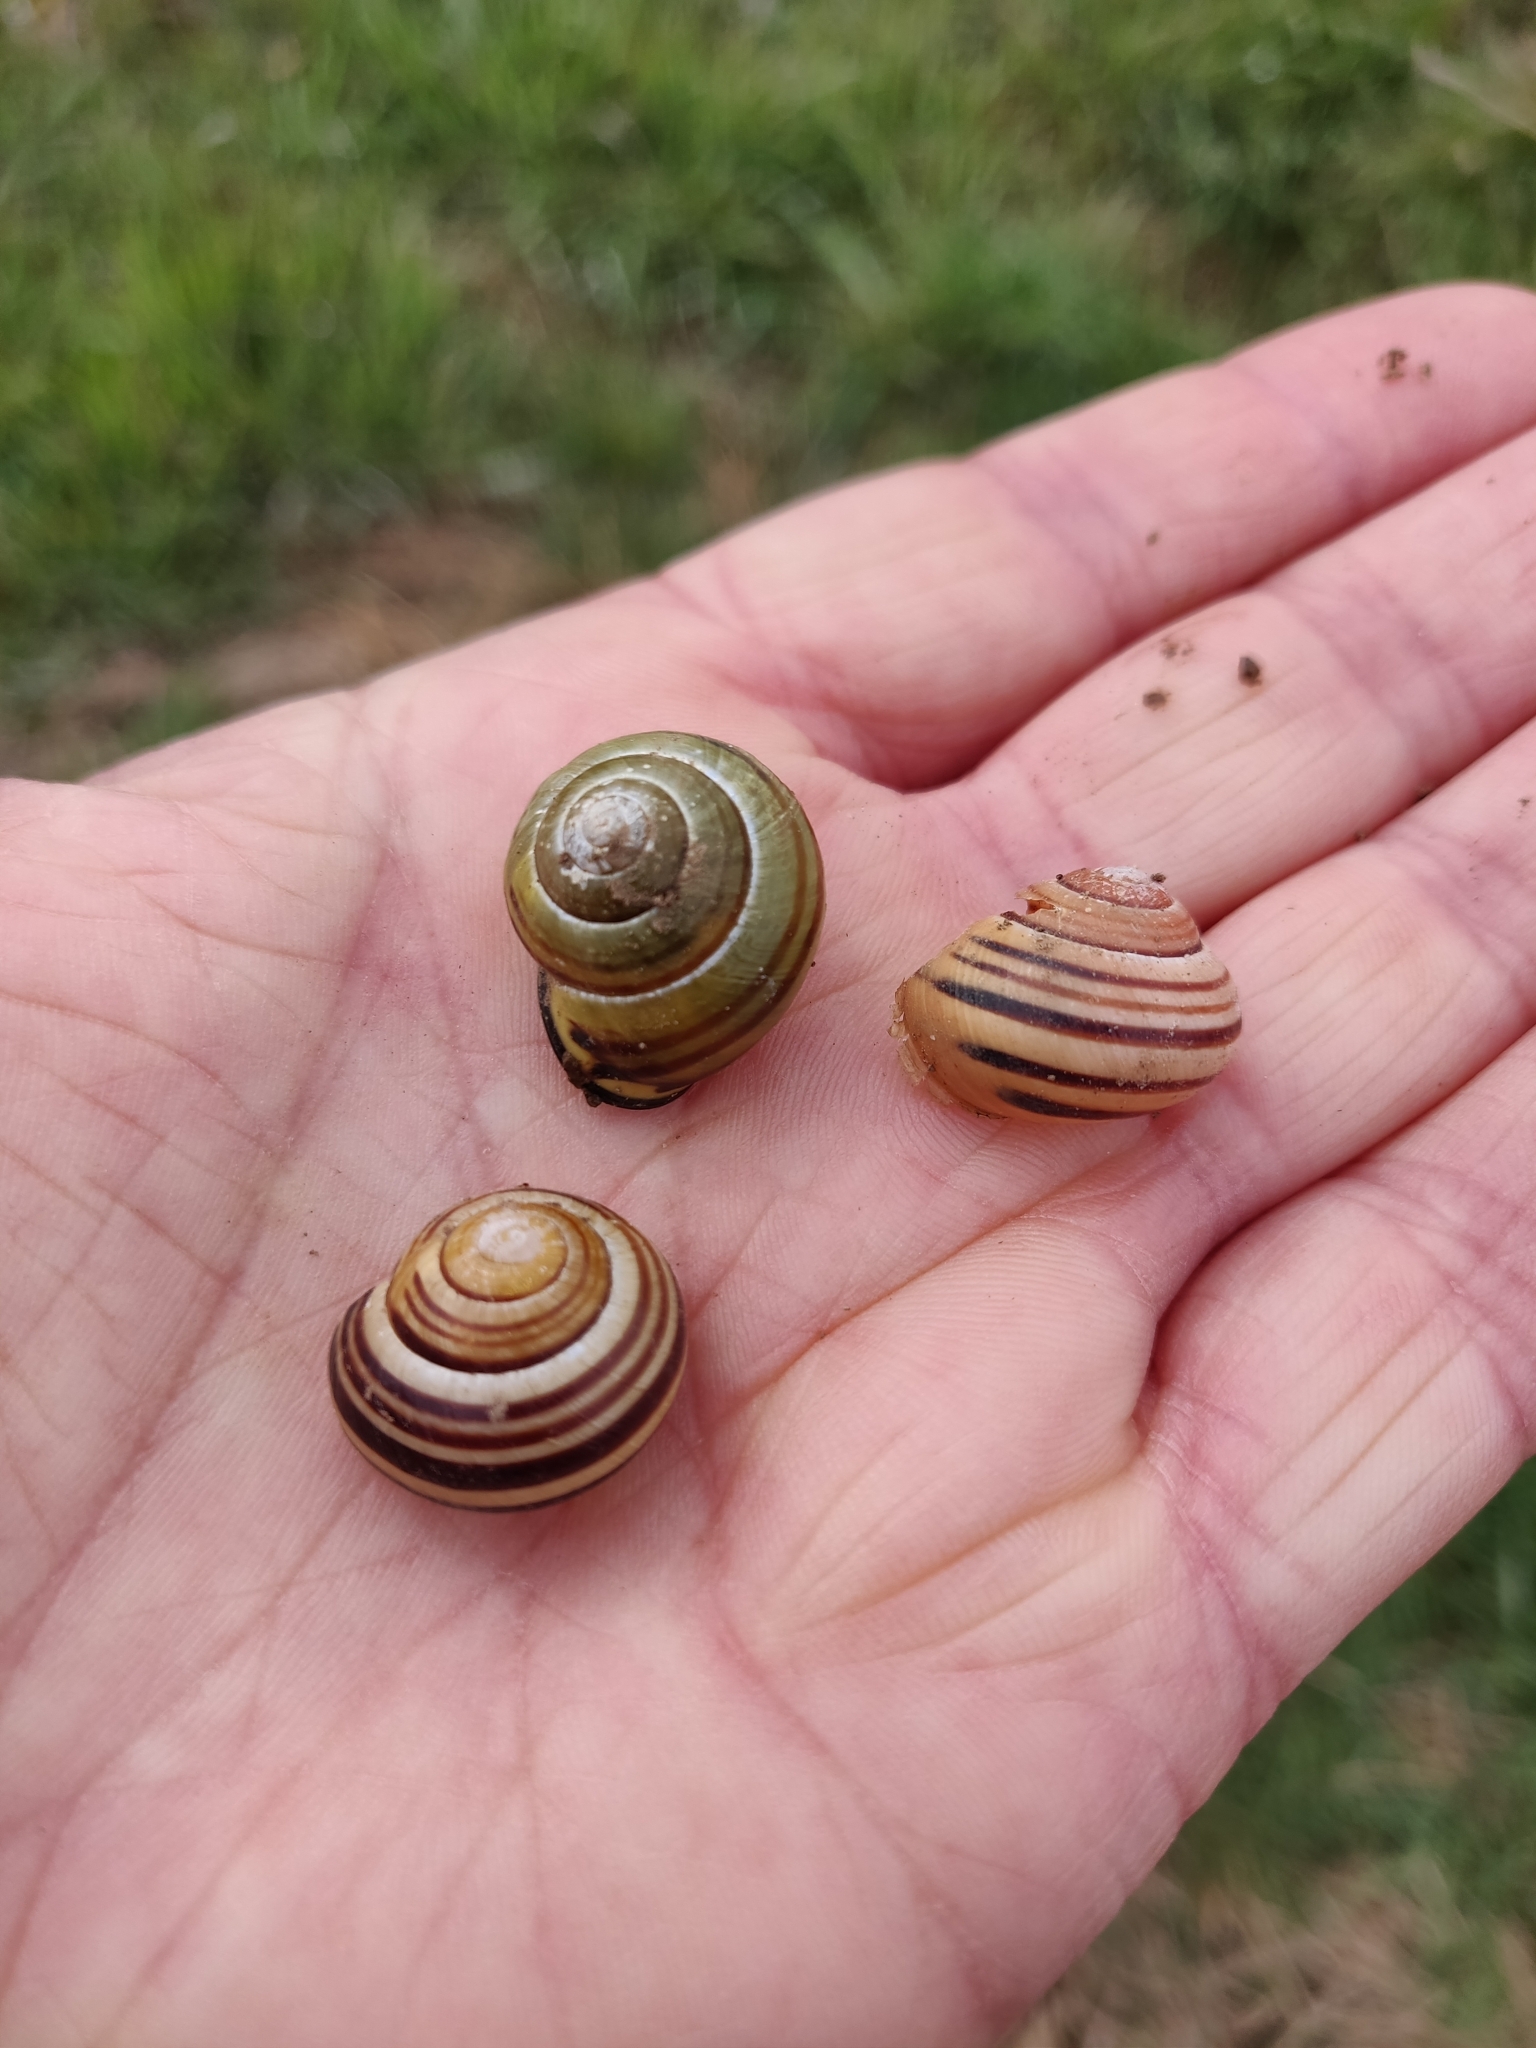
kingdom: Animalia
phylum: Mollusca
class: Gastropoda
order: Stylommatophora
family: Helicidae
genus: Cepaea
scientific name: Cepaea nemoralis
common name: Grovesnail
